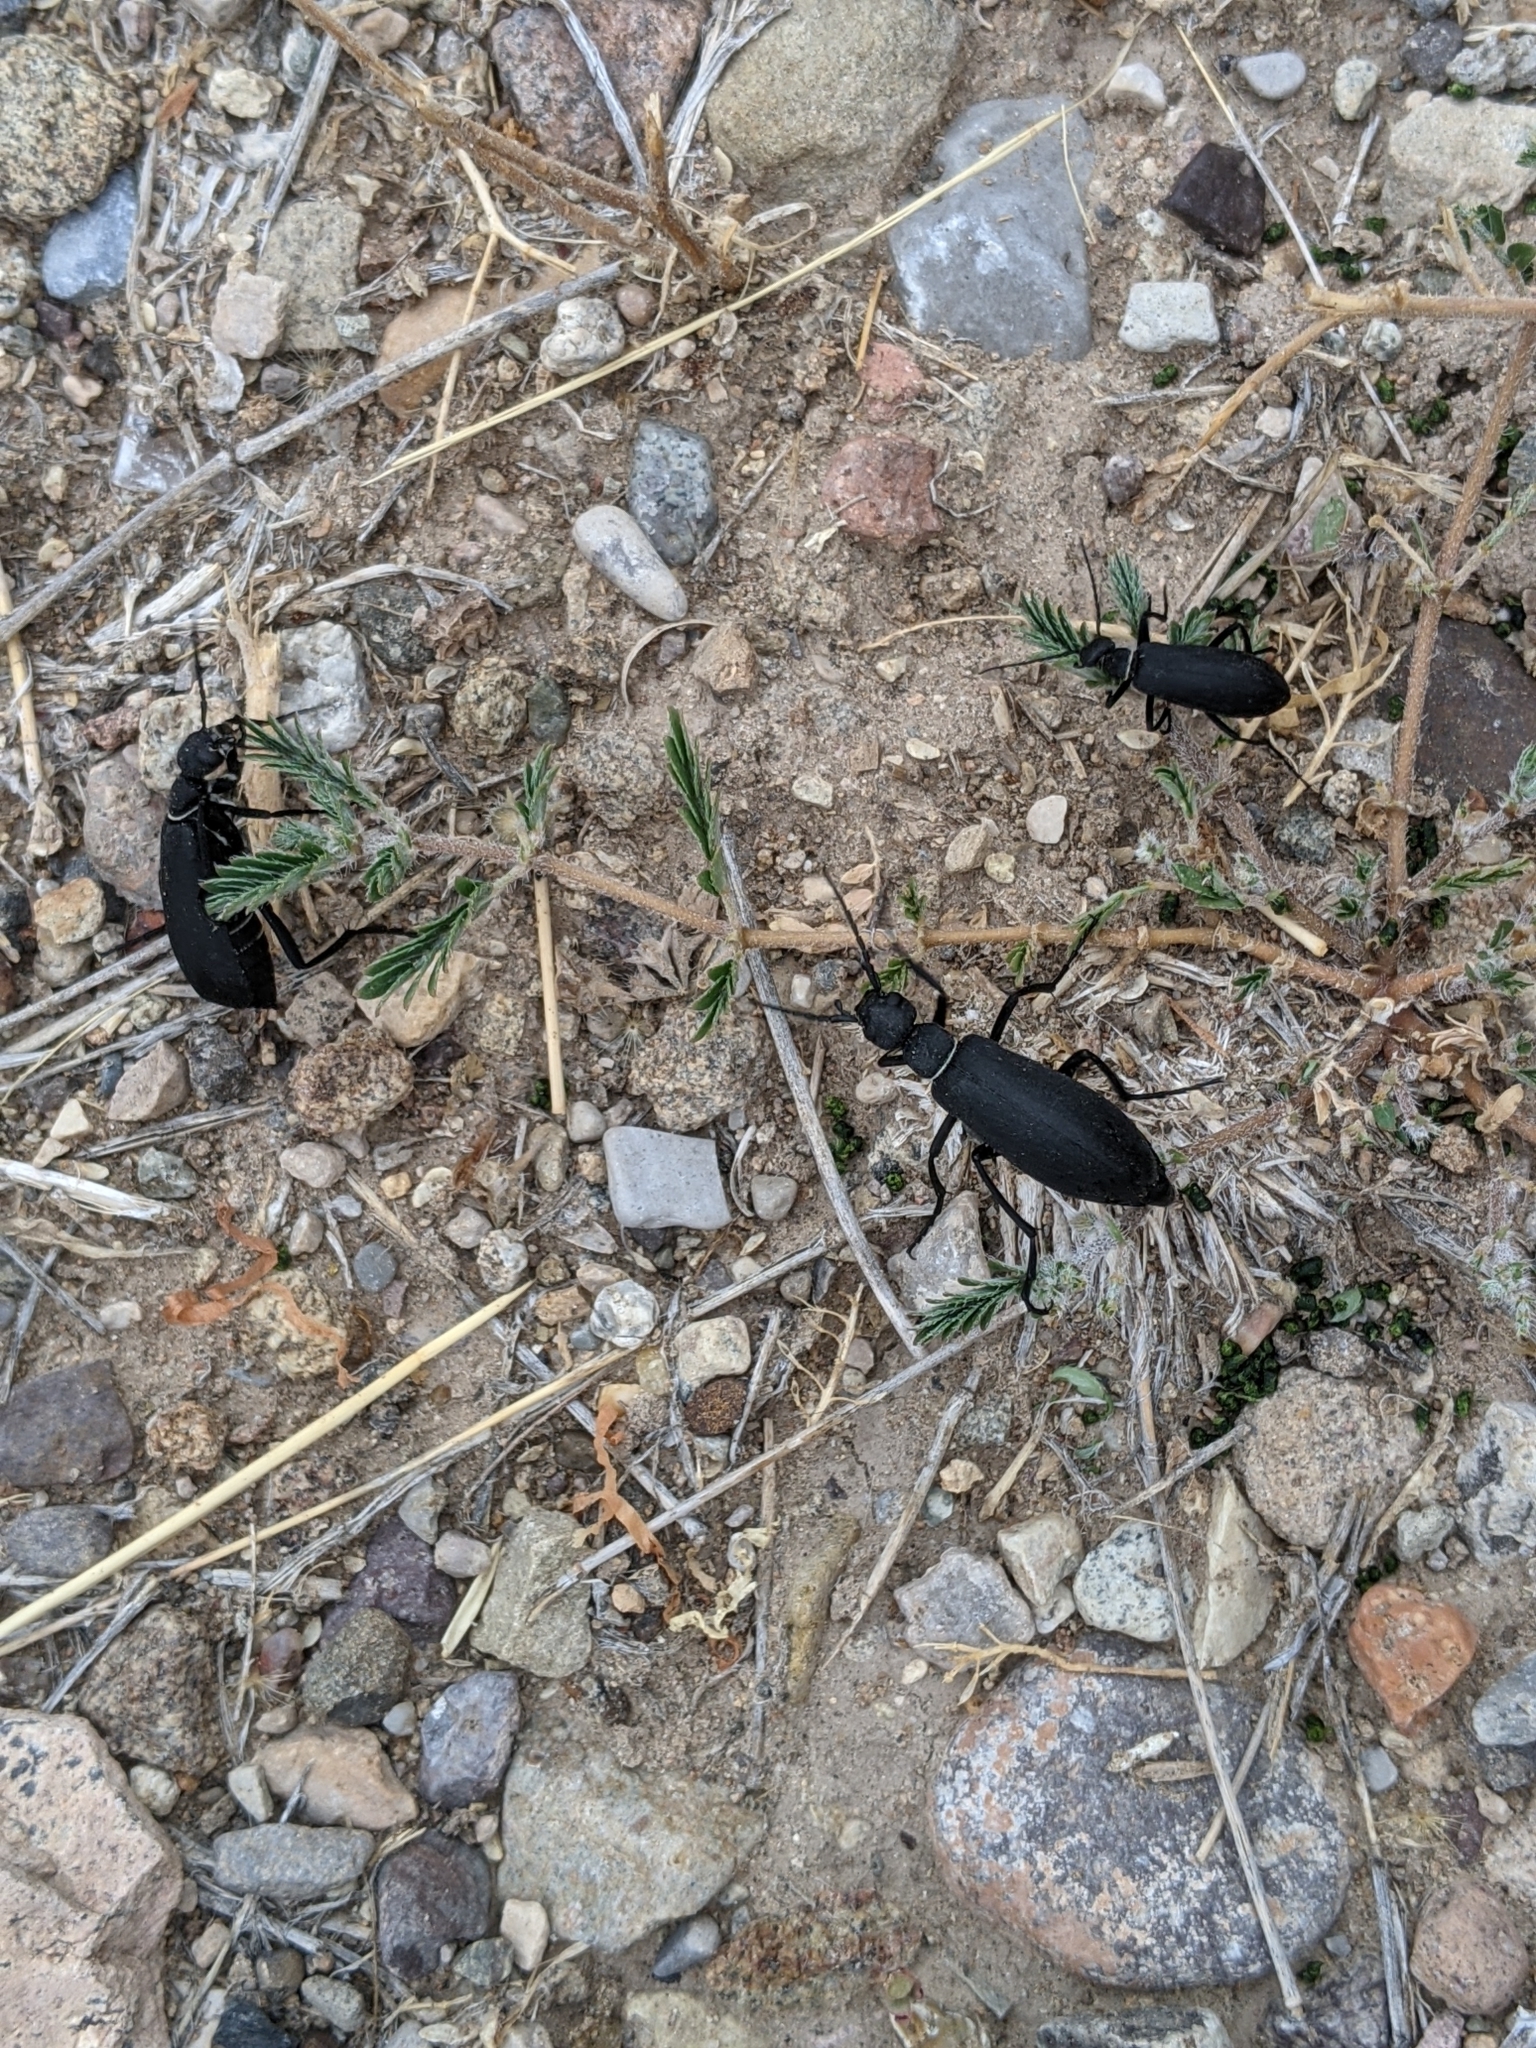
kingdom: Animalia
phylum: Arthropoda
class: Insecta
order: Coleoptera
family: Meloidae
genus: Epicauta
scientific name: Epicauta segmenta
